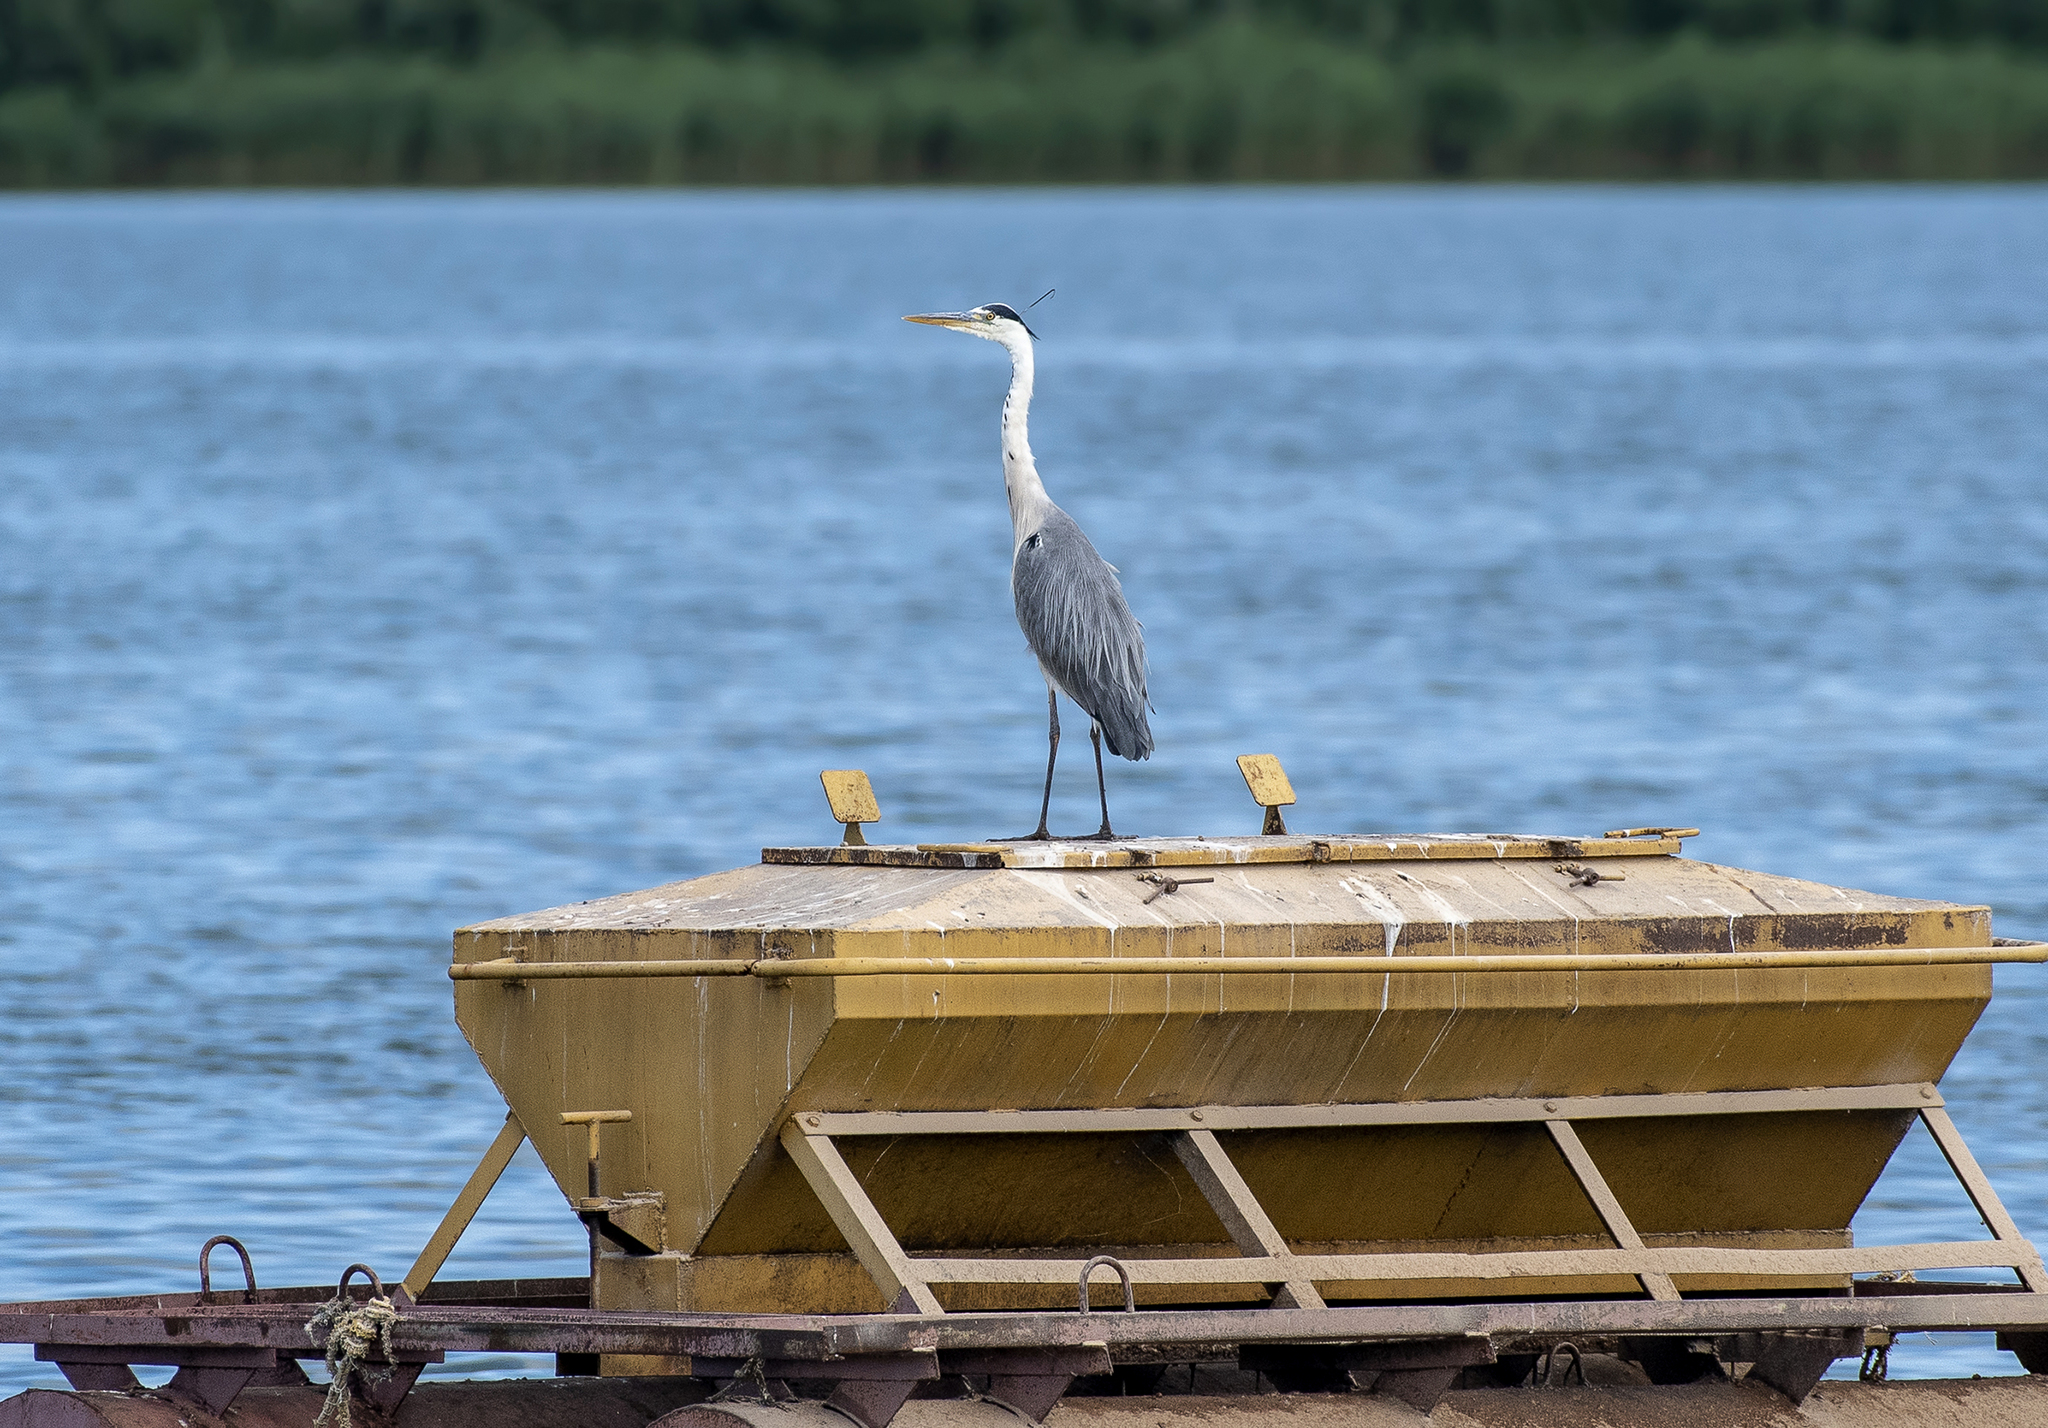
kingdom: Animalia
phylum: Chordata
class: Aves
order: Pelecaniformes
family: Ardeidae
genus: Ardea
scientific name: Ardea cinerea
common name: Grey heron
